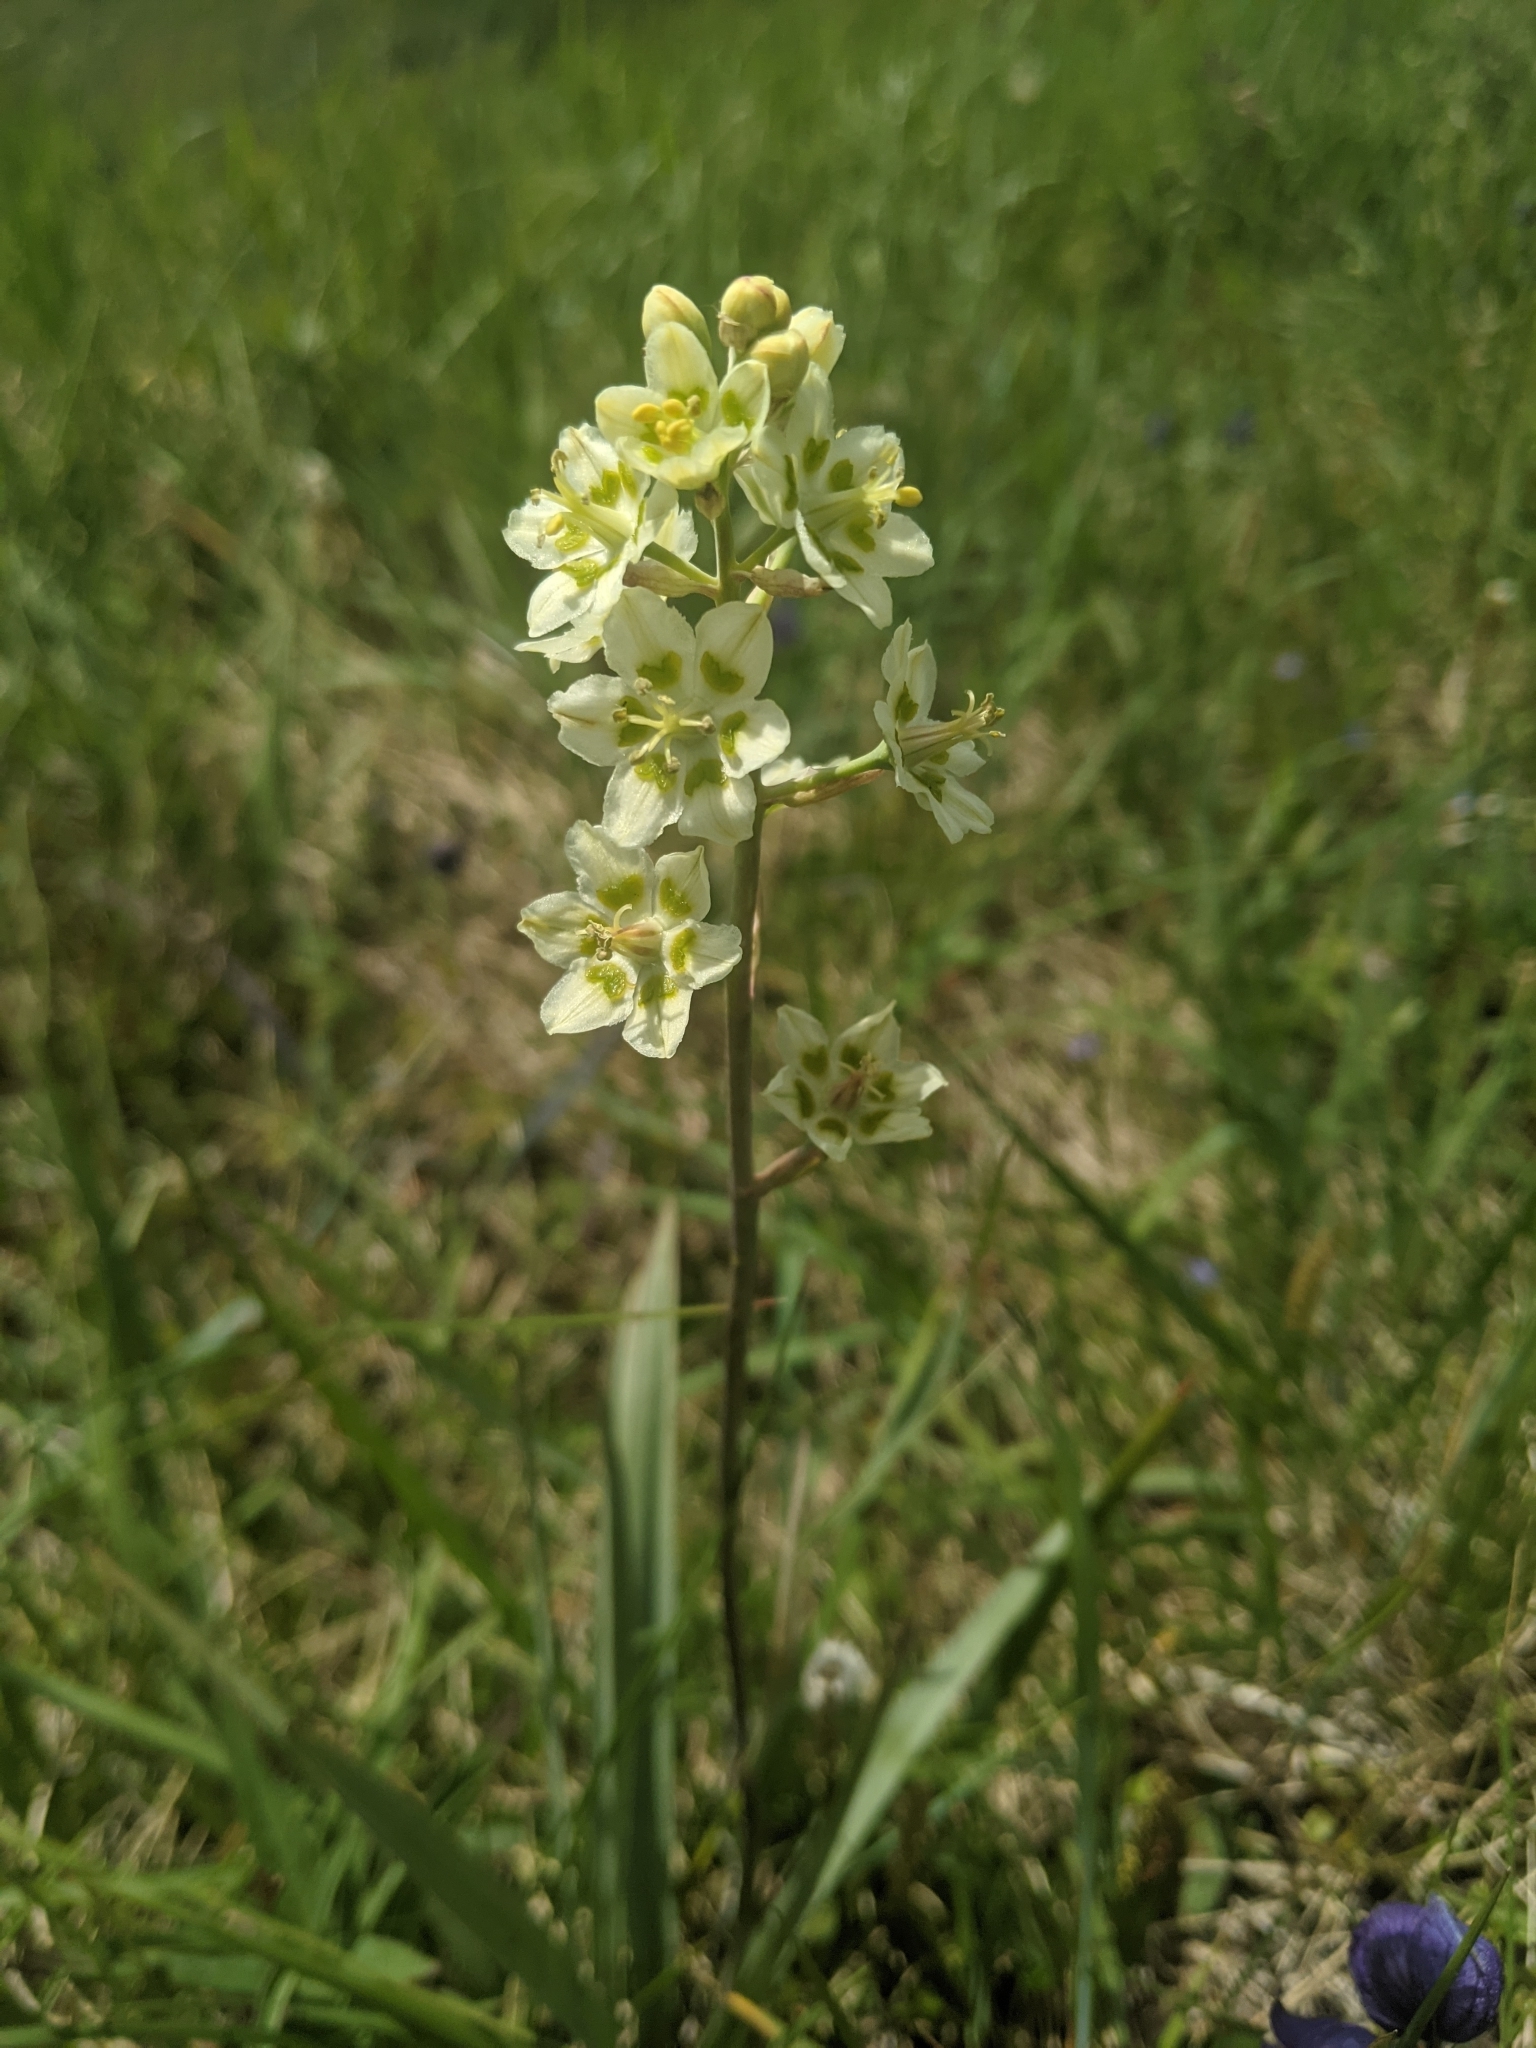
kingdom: Plantae
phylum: Tracheophyta
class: Liliopsida
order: Liliales
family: Melanthiaceae
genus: Anticlea
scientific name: Anticlea elegans
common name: Mountain death camas
